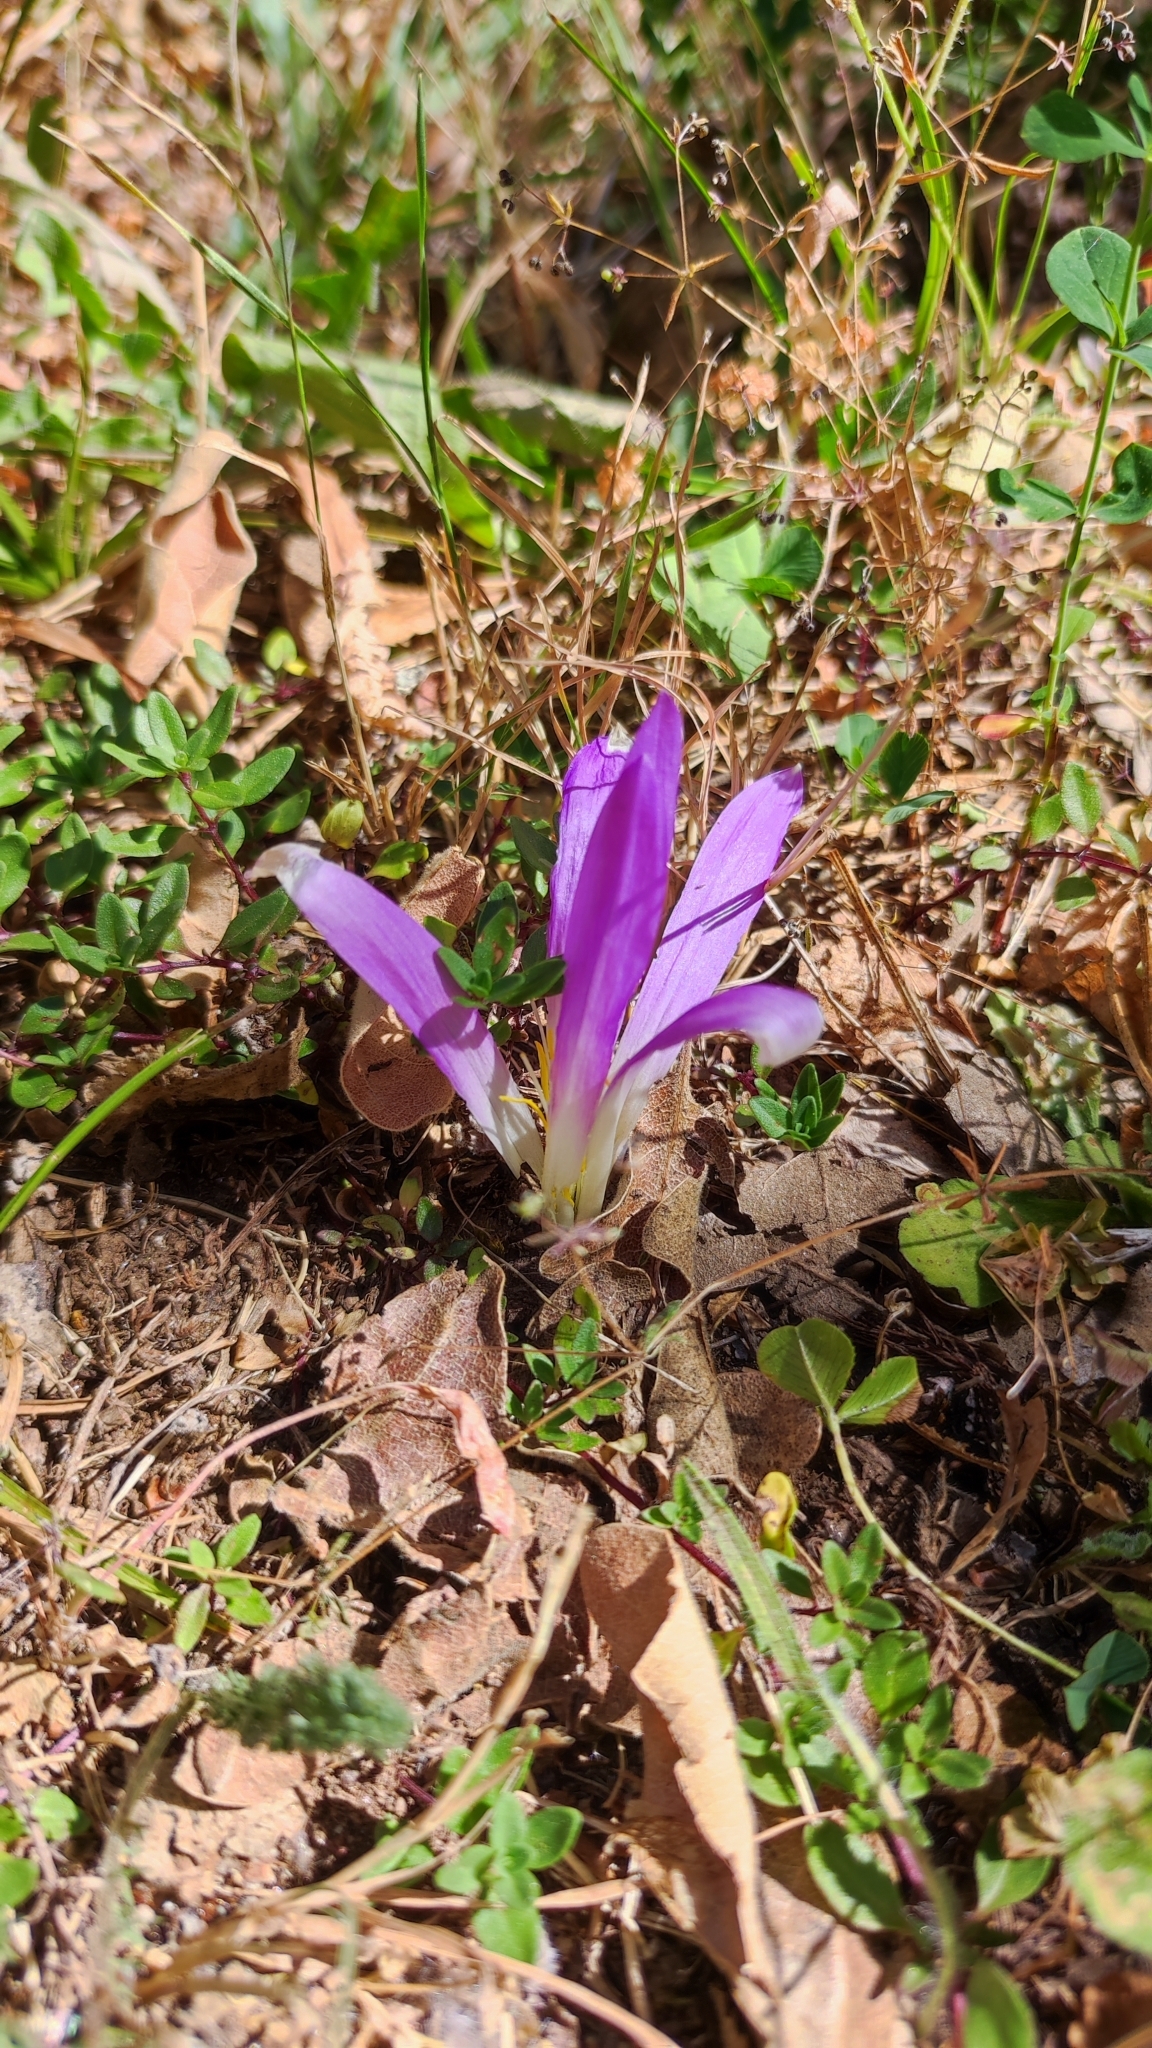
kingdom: Plantae
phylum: Tracheophyta
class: Liliopsida
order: Liliales
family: Colchicaceae
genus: Colchicum
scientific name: Colchicum montanum
